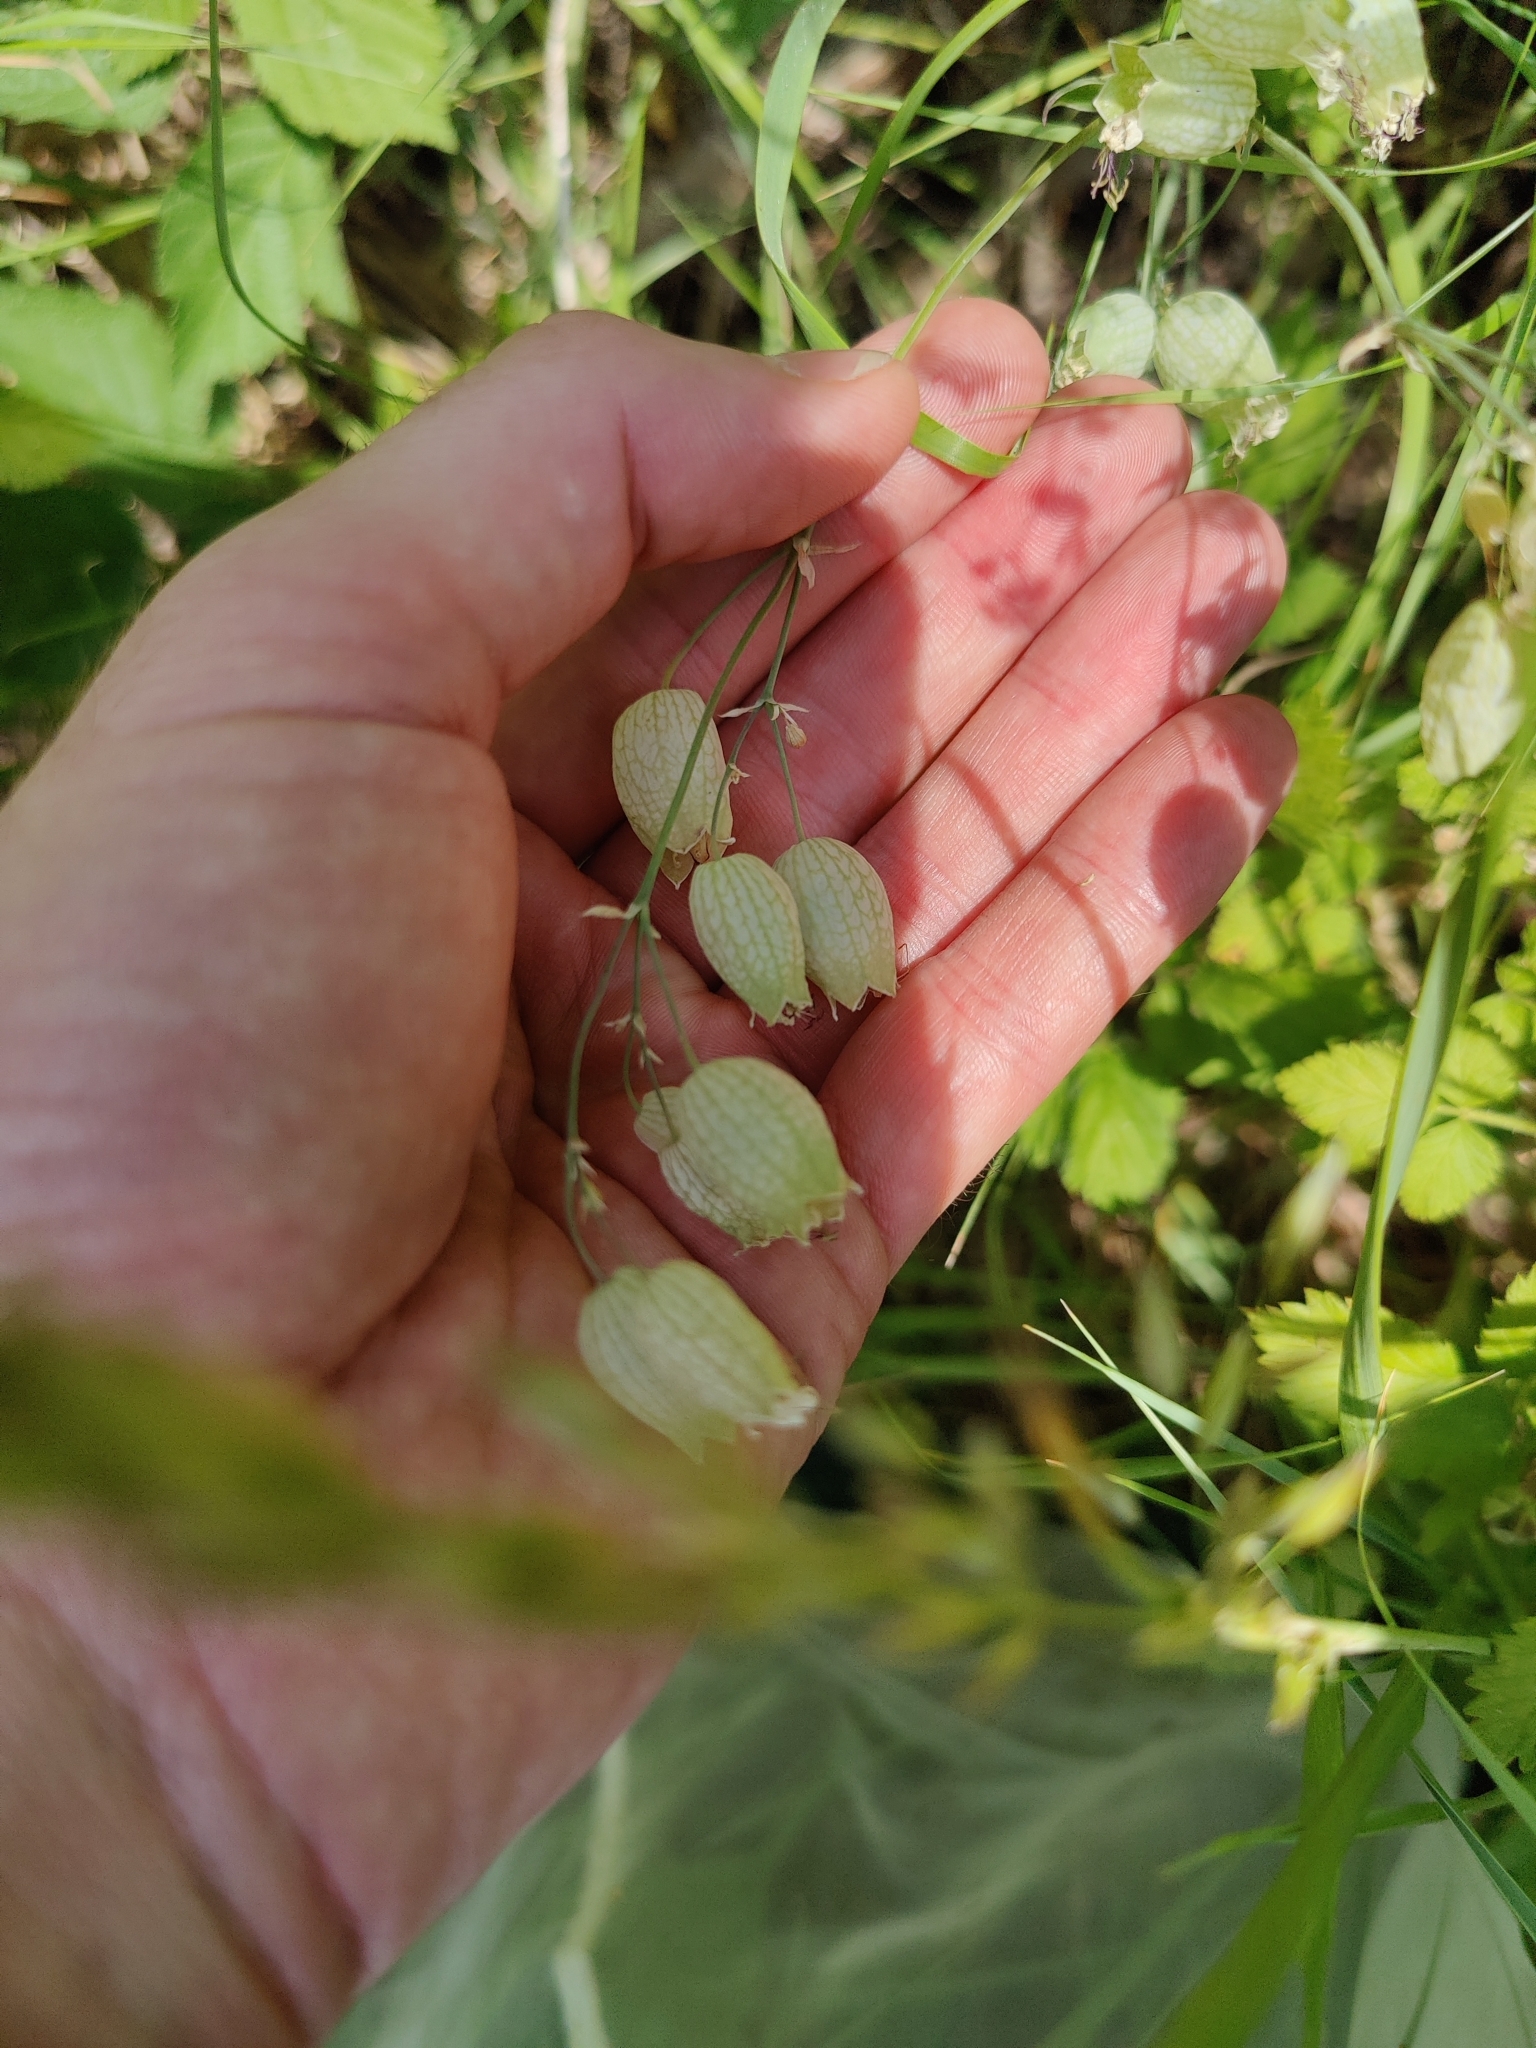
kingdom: Plantae
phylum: Tracheophyta
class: Magnoliopsida
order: Caryophyllales
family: Caryophyllaceae
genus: Silene
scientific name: Silene vulgaris
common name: Bladder campion
